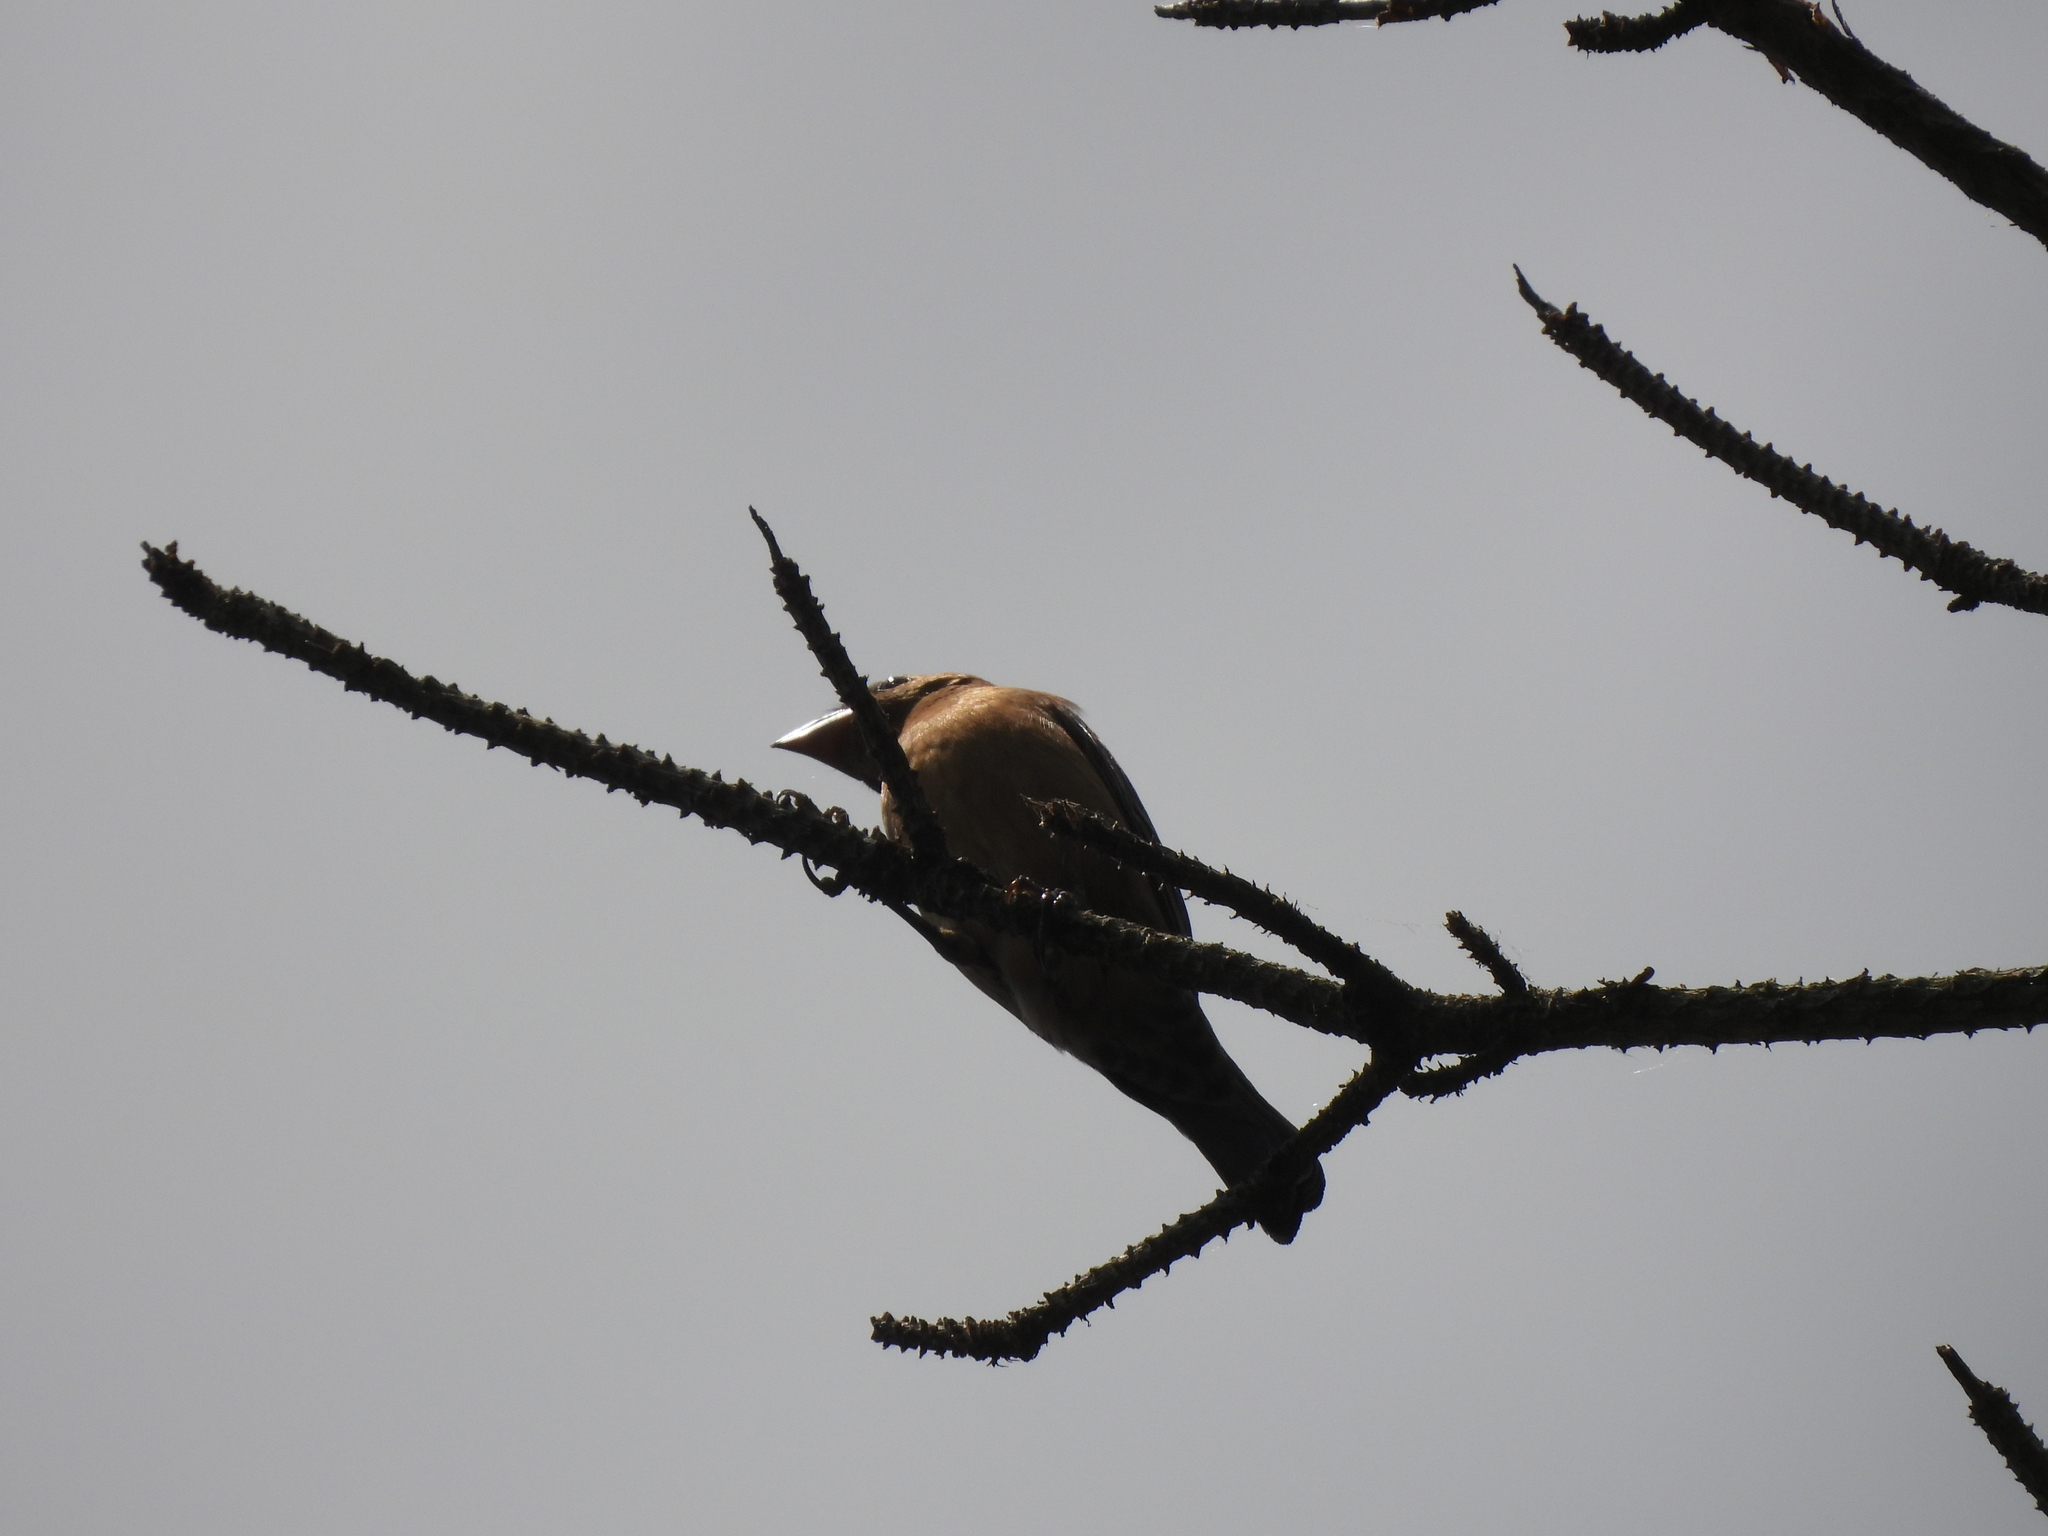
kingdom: Animalia
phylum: Chordata
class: Aves
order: Passeriformes
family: Cardinalidae
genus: Passerina
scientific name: Passerina caerulea
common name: Blue grosbeak
